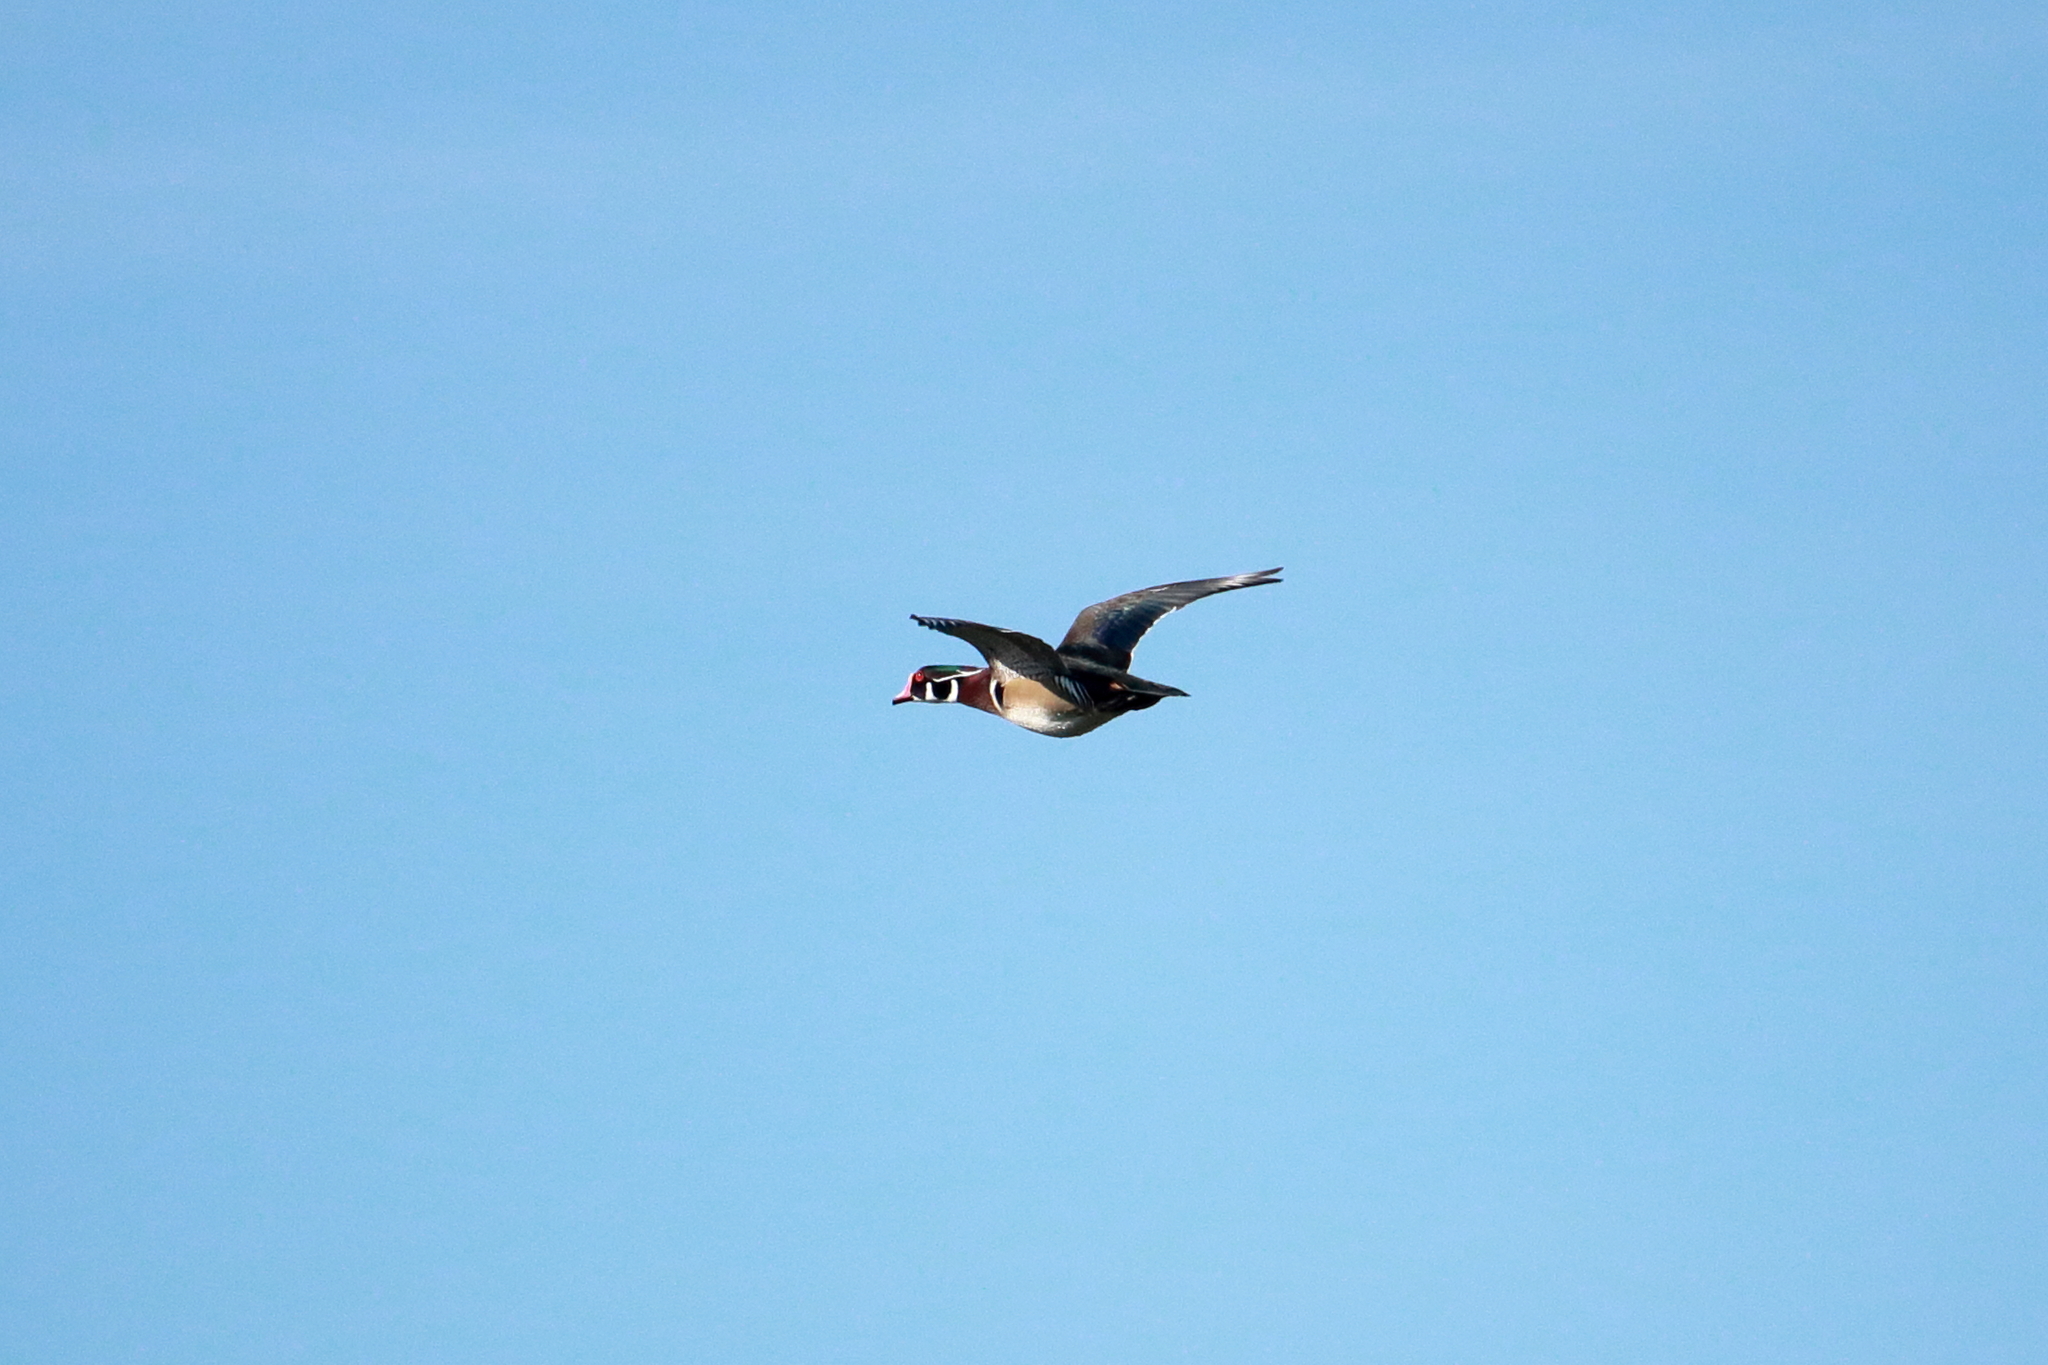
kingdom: Animalia
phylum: Chordata
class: Aves
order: Anseriformes
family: Anatidae
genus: Aix
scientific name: Aix sponsa
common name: Wood duck
